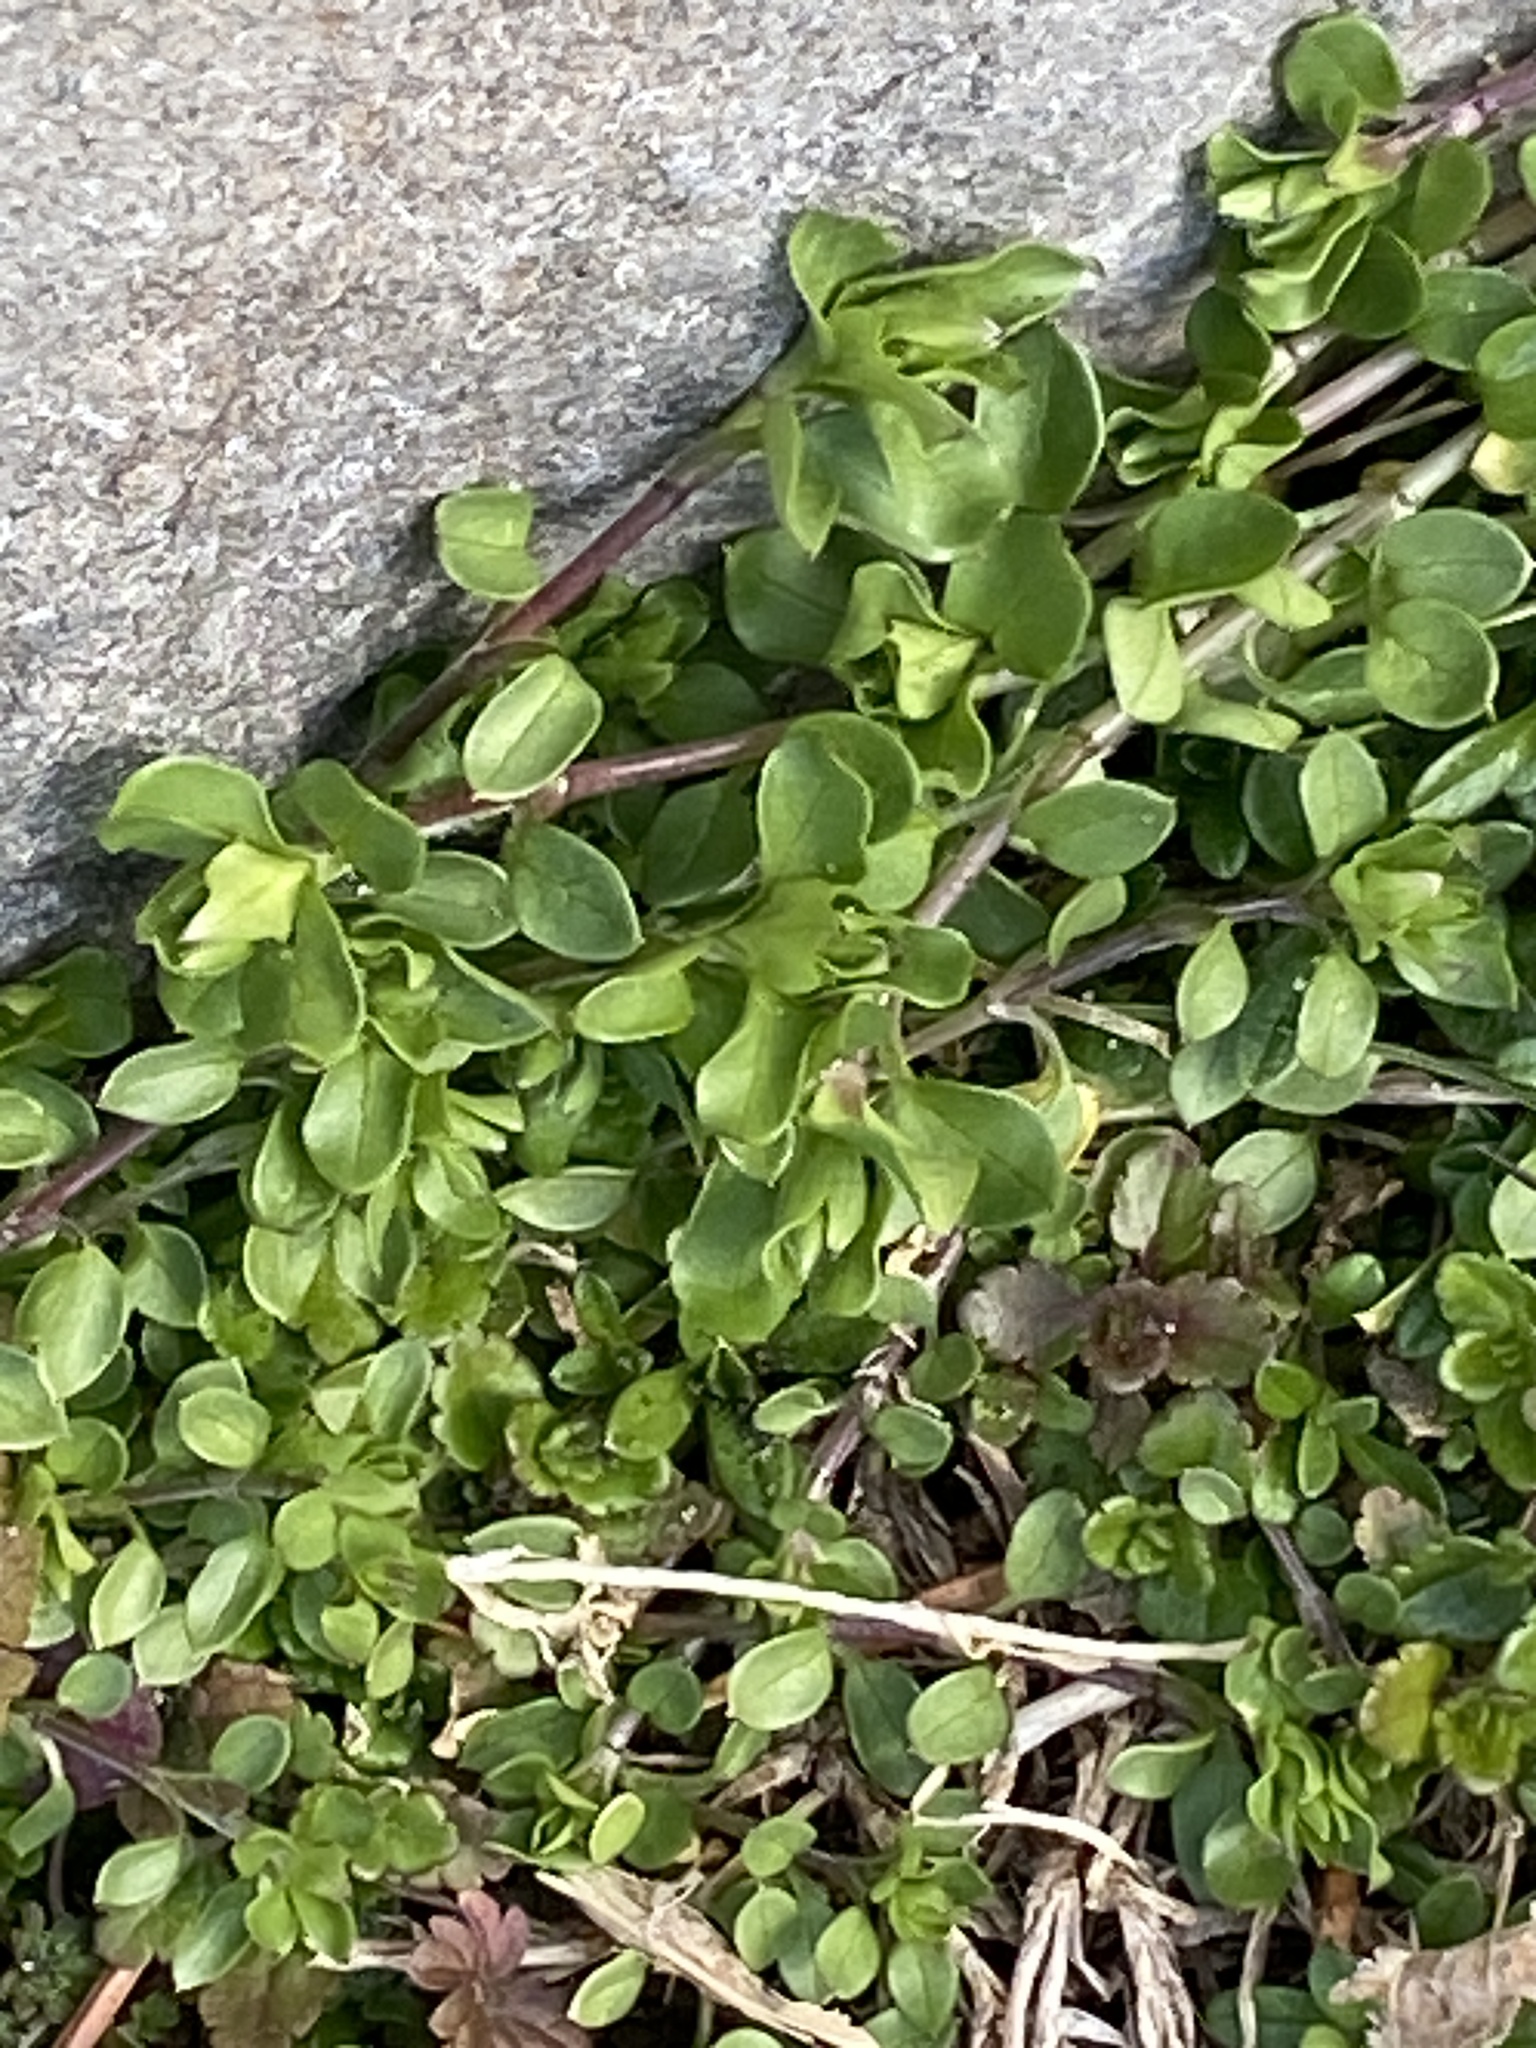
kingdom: Plantae
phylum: Tracheophyta
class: Magnoliopsida
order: Caryophyllales
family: Caryophyllaceae
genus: Stellaria
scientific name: Stellaria media
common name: Common chickweed
